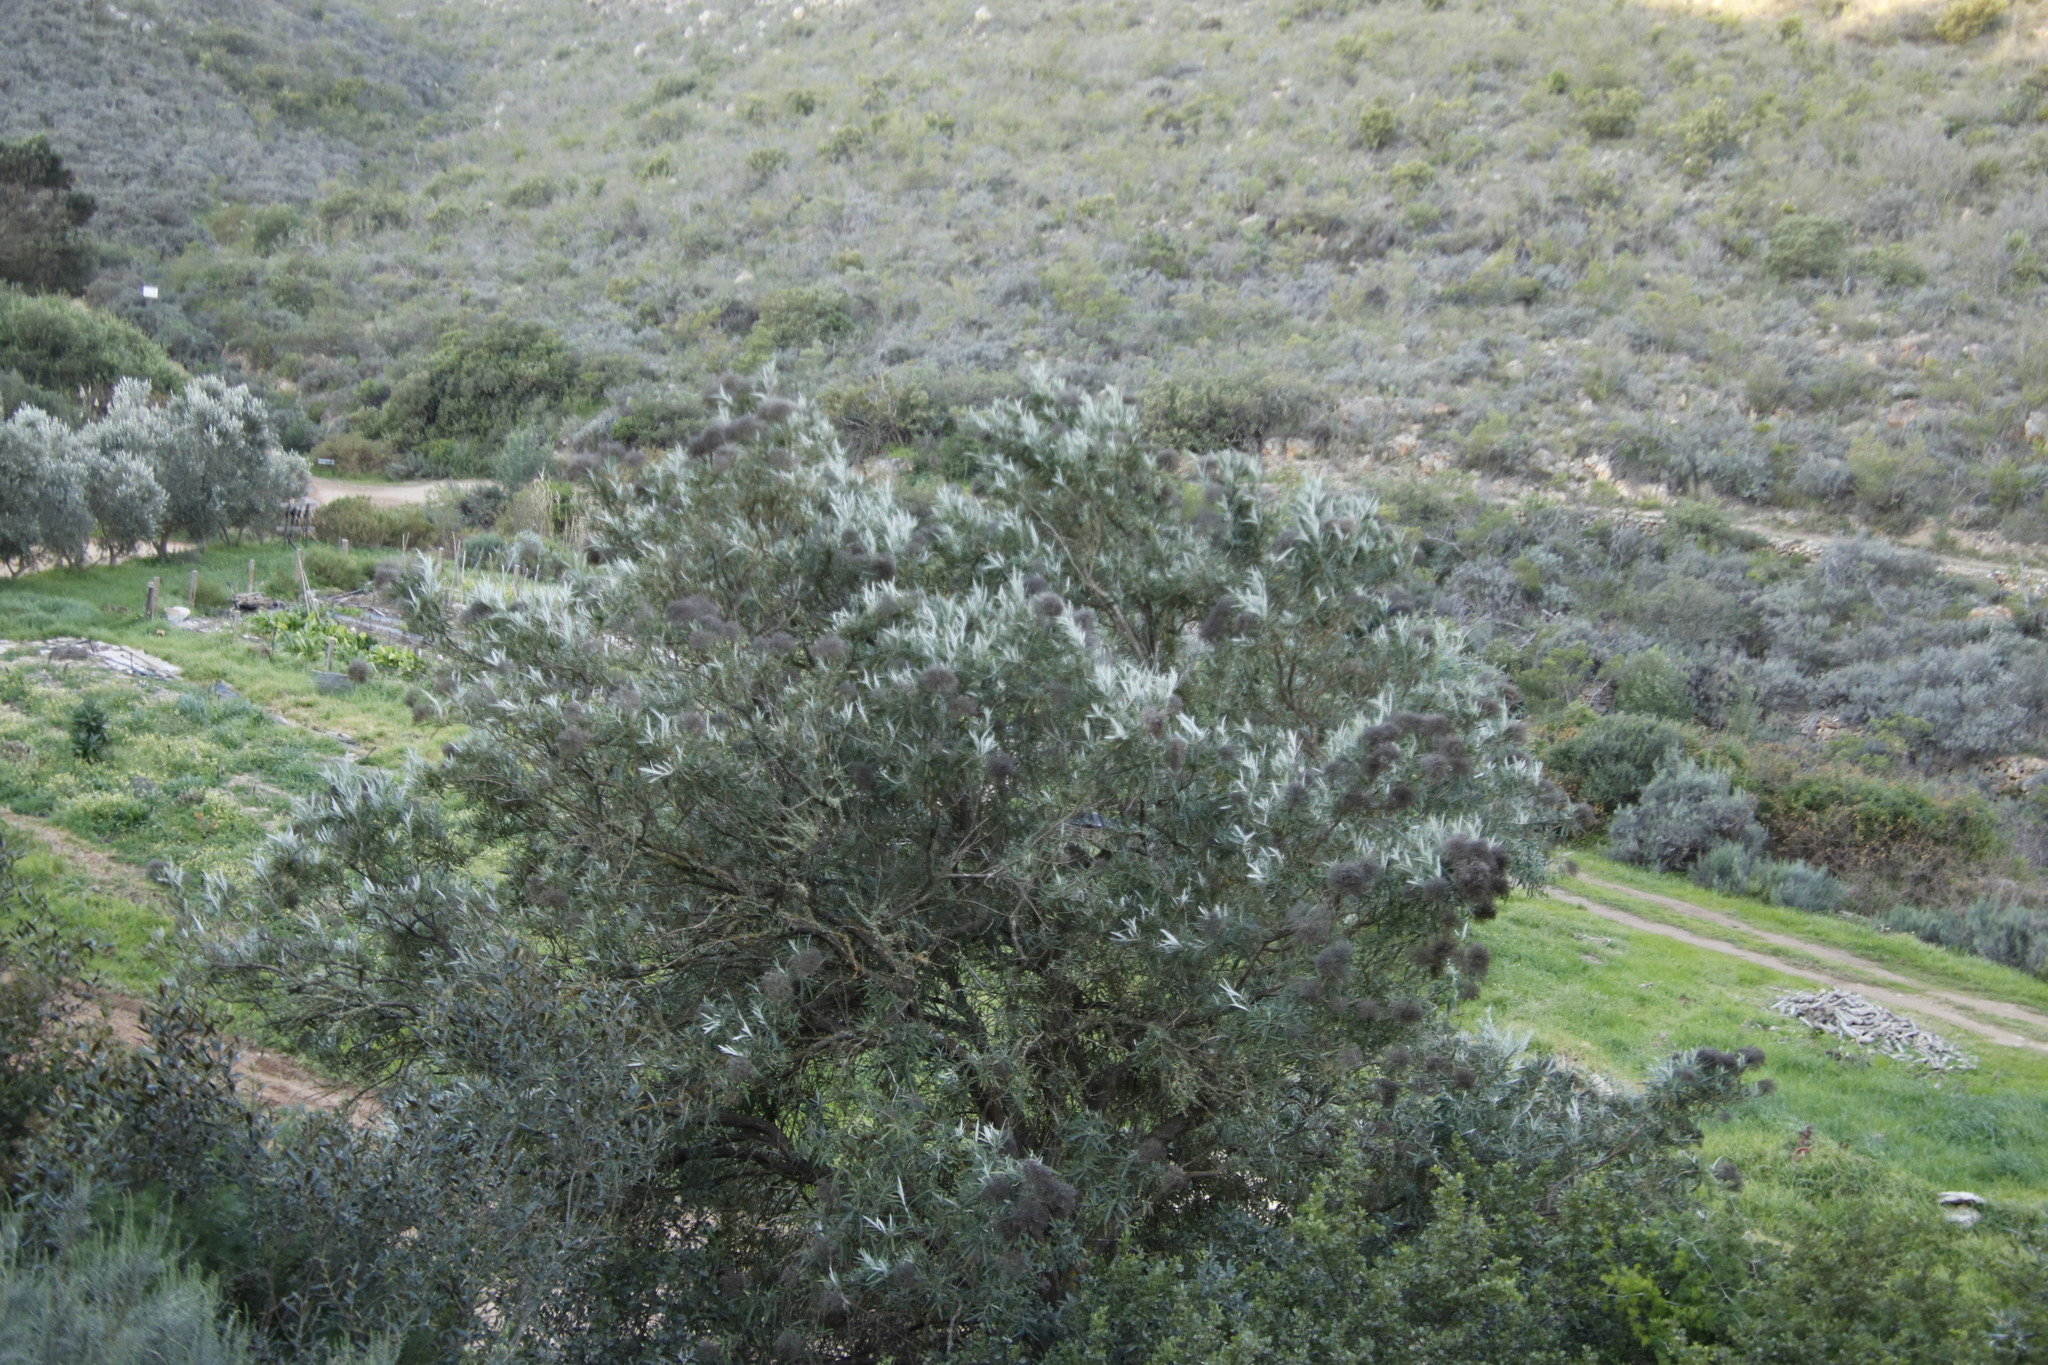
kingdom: Plantae
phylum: Tracheophyta
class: Magnoliopsida
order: Lamiales
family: Scrophulariaceae
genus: Buddleja
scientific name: Buddleja saligna
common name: False olive
